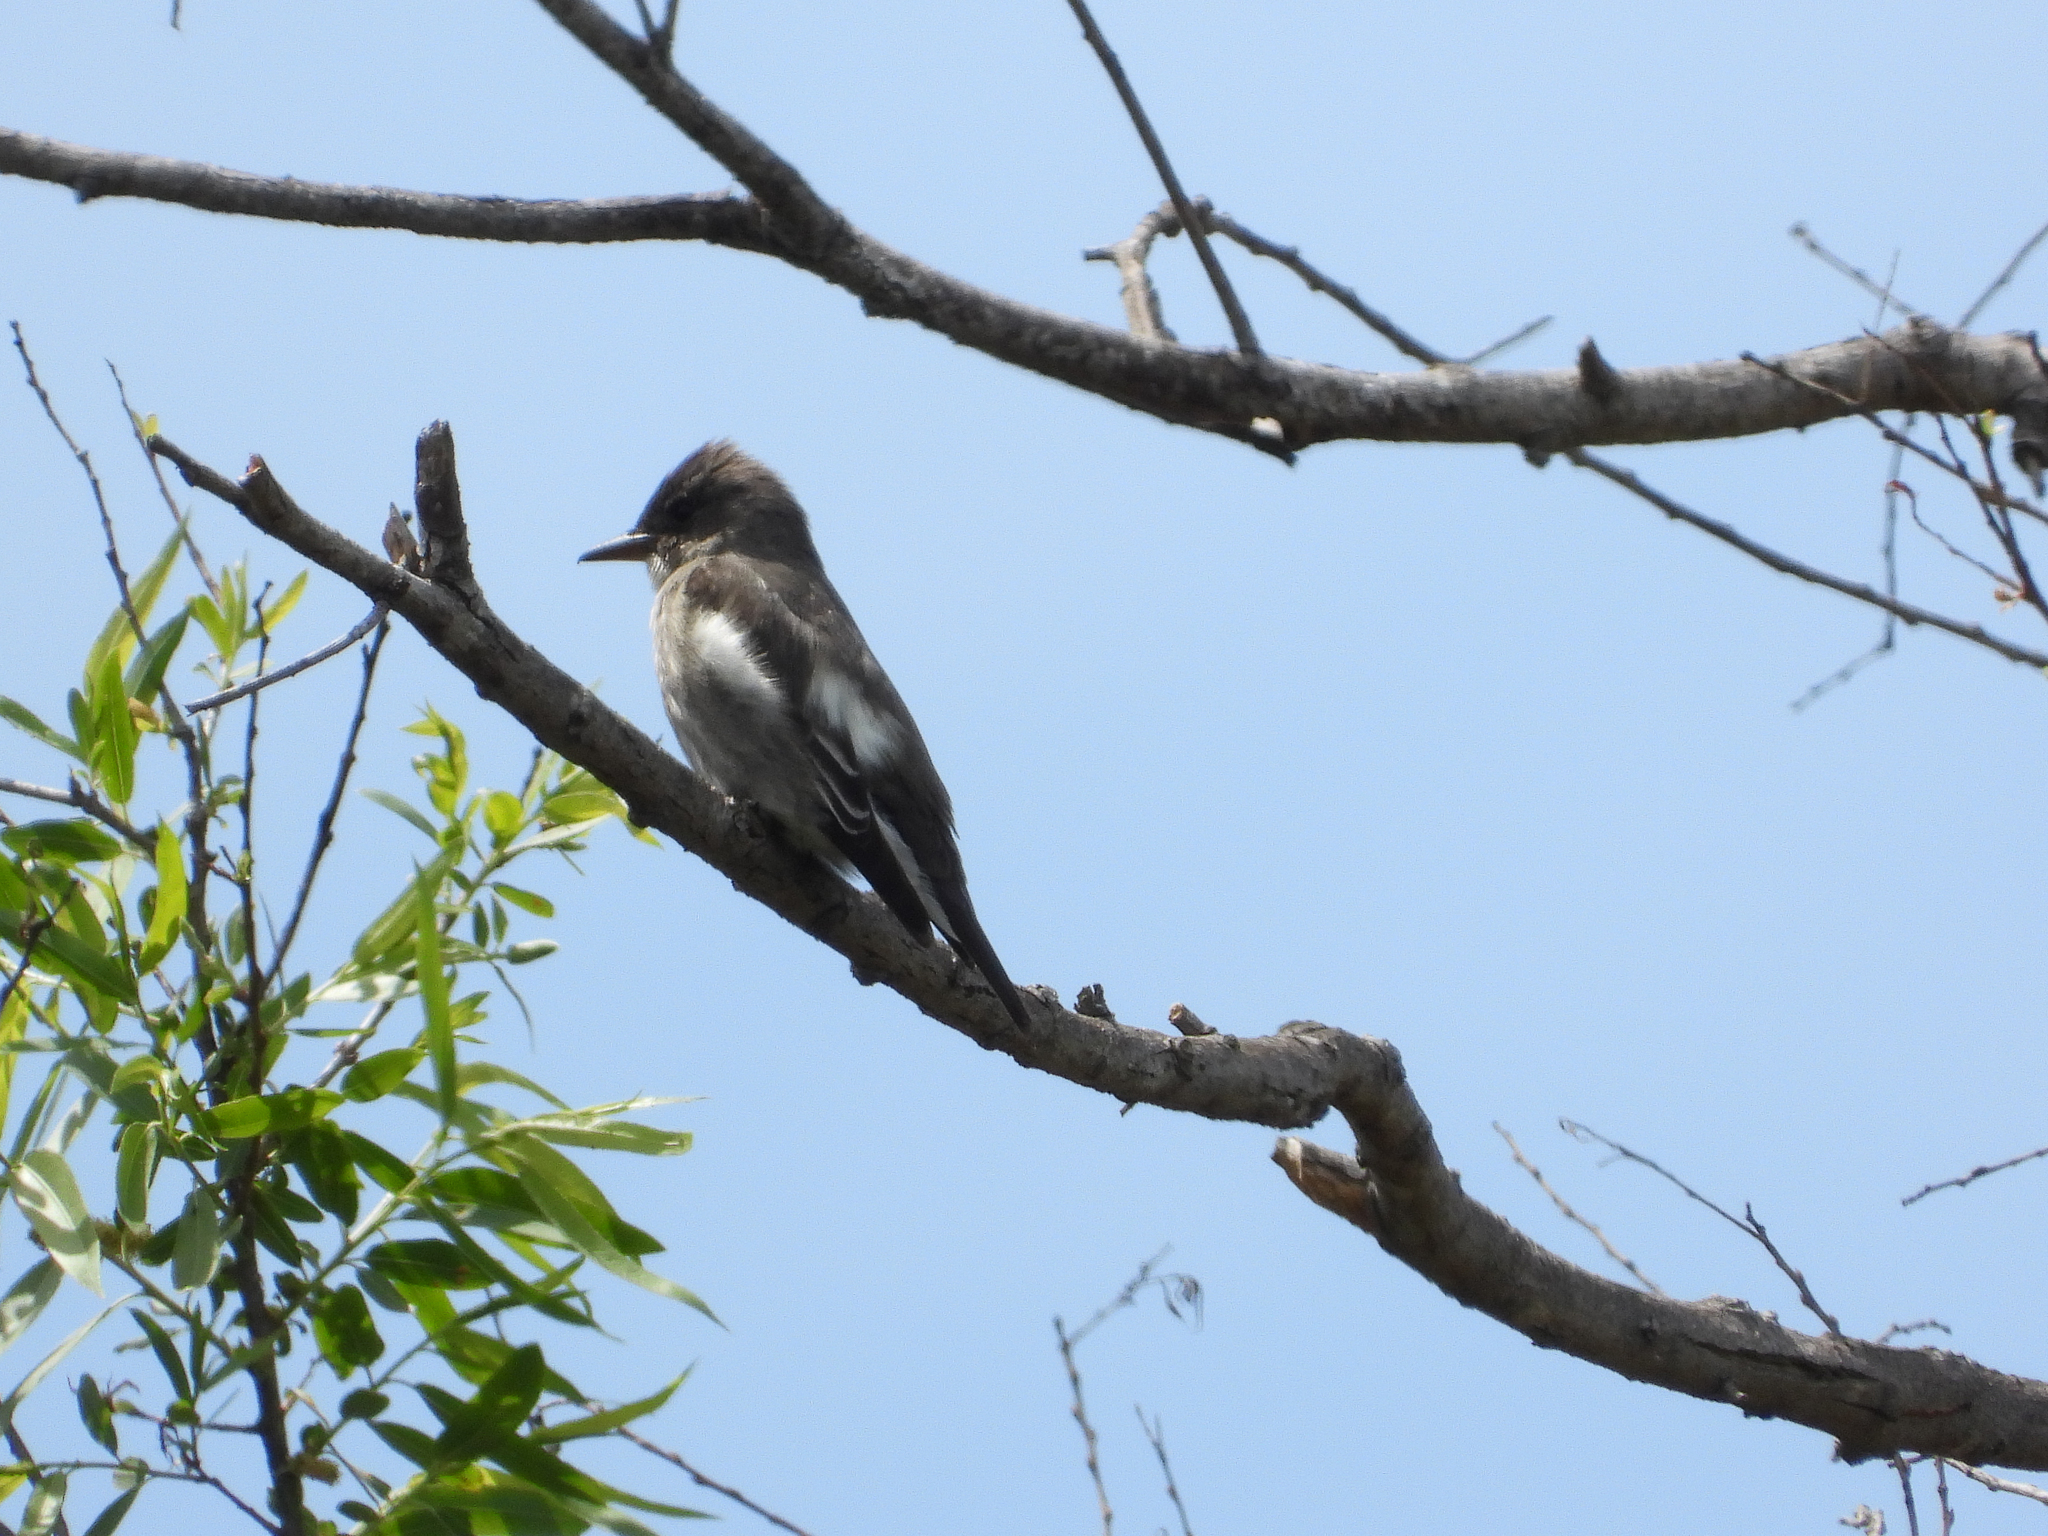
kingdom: Animalia
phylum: Chordata
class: Aves
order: Passeriformes
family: Tyrannidae
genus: Contopus
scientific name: Contopus cooperi
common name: Olive-sided flycatcher
